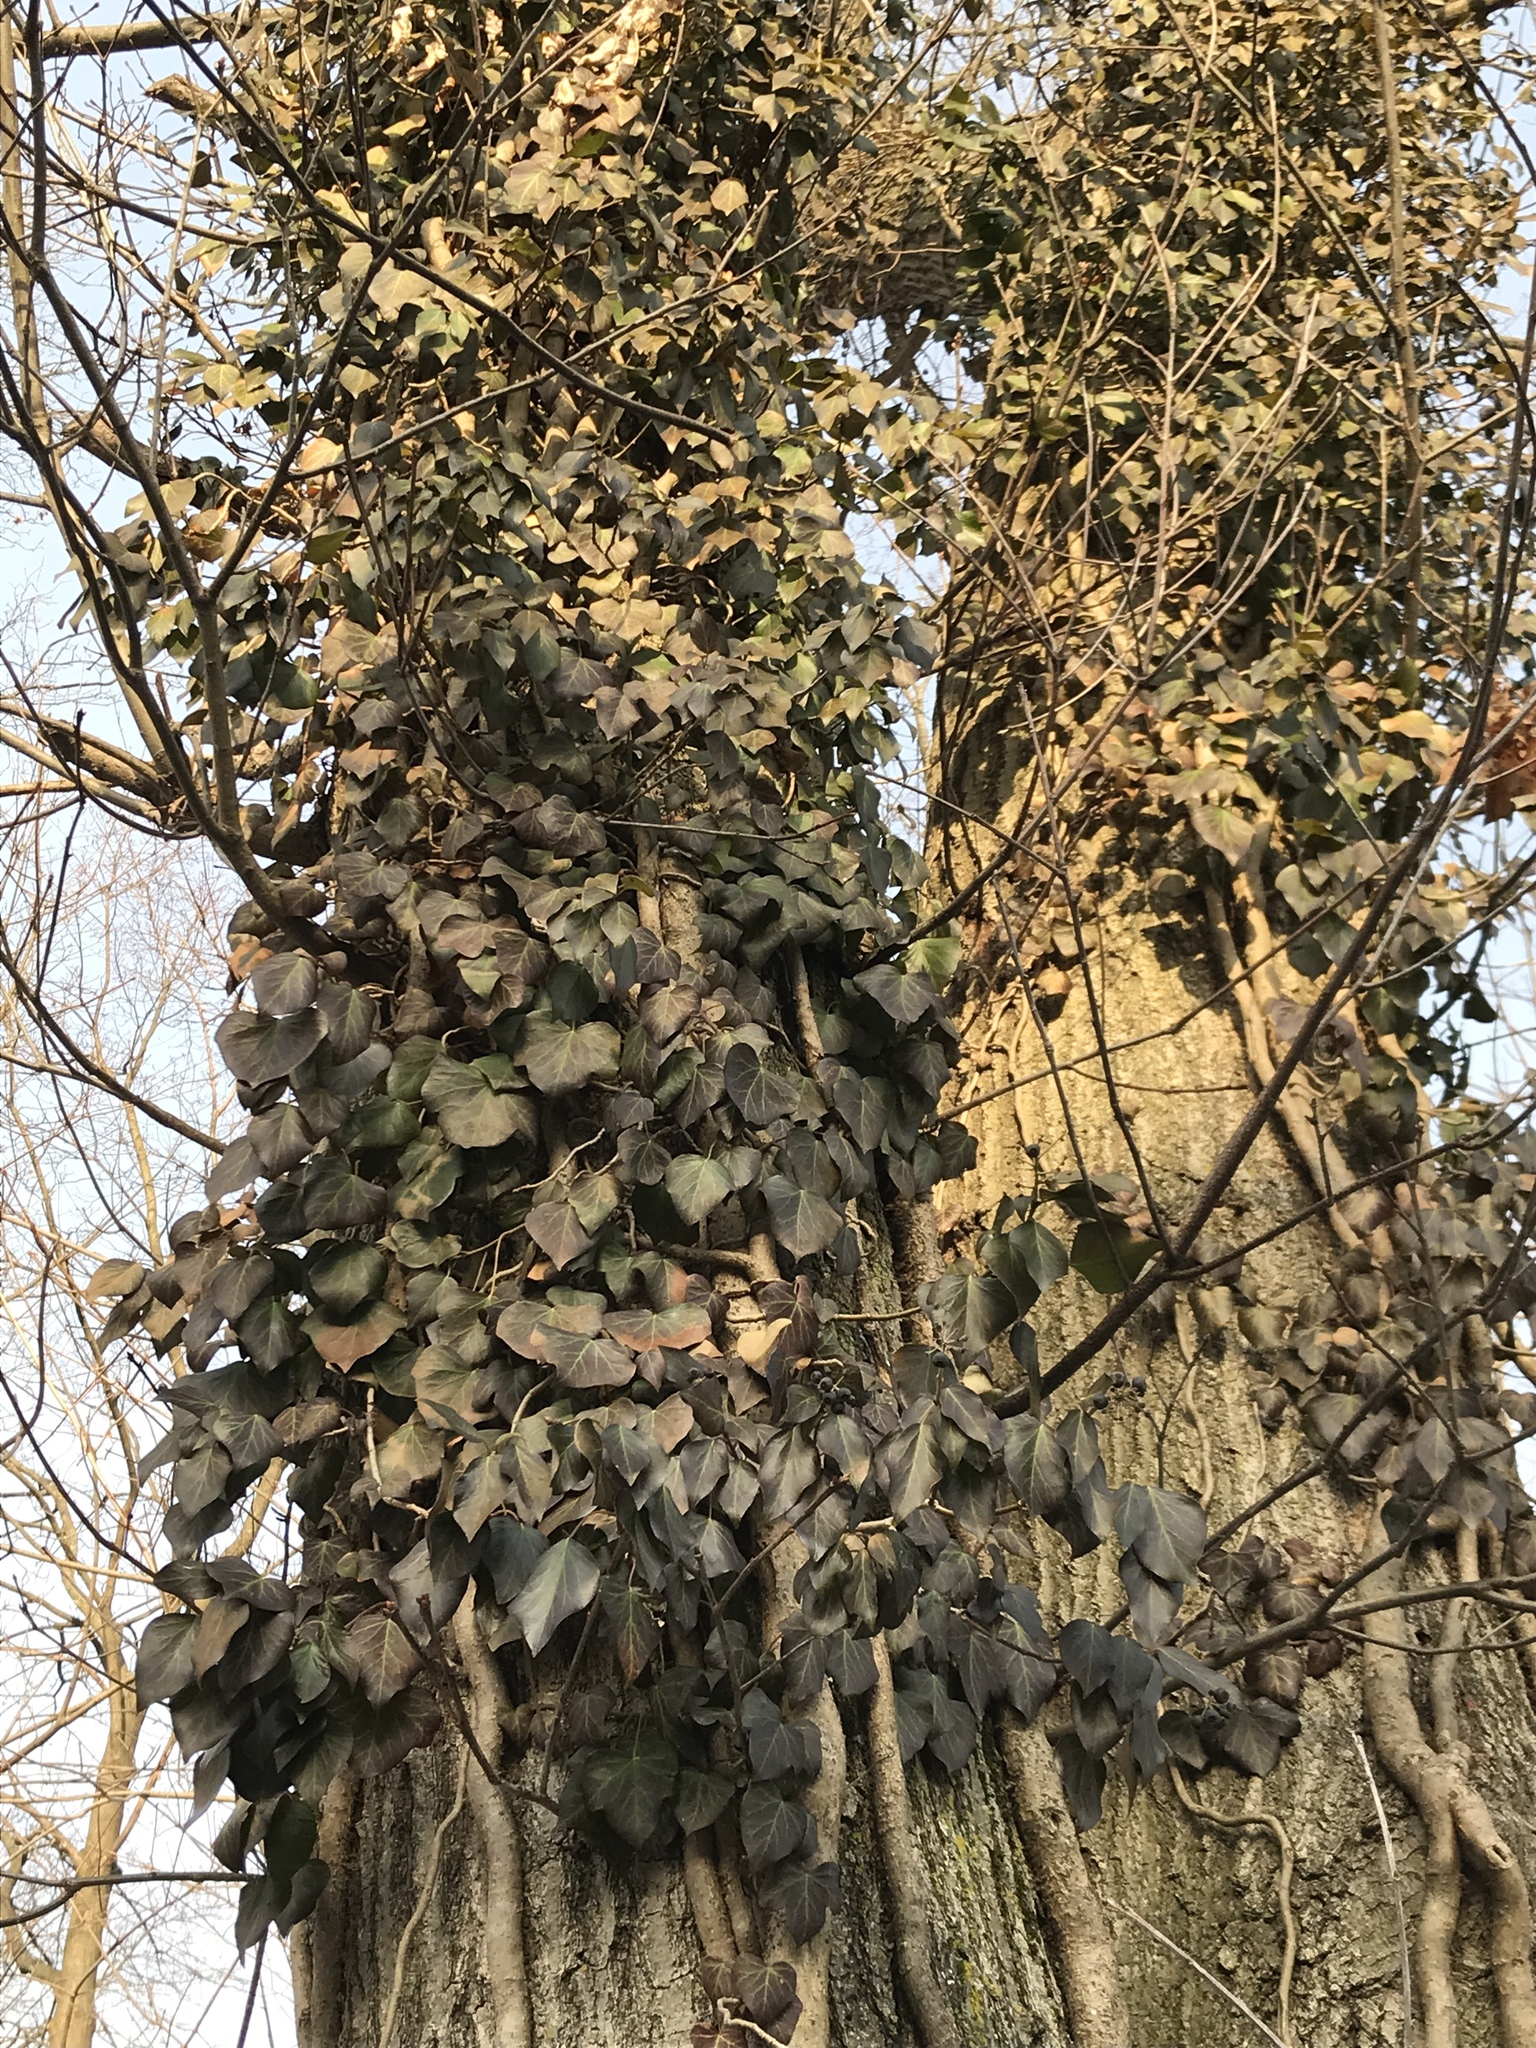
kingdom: Plantae
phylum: Tracheophyta
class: Magnoliopsida
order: Apiales
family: Araliaceae
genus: Hedera
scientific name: Hedera helix
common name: Ivy
